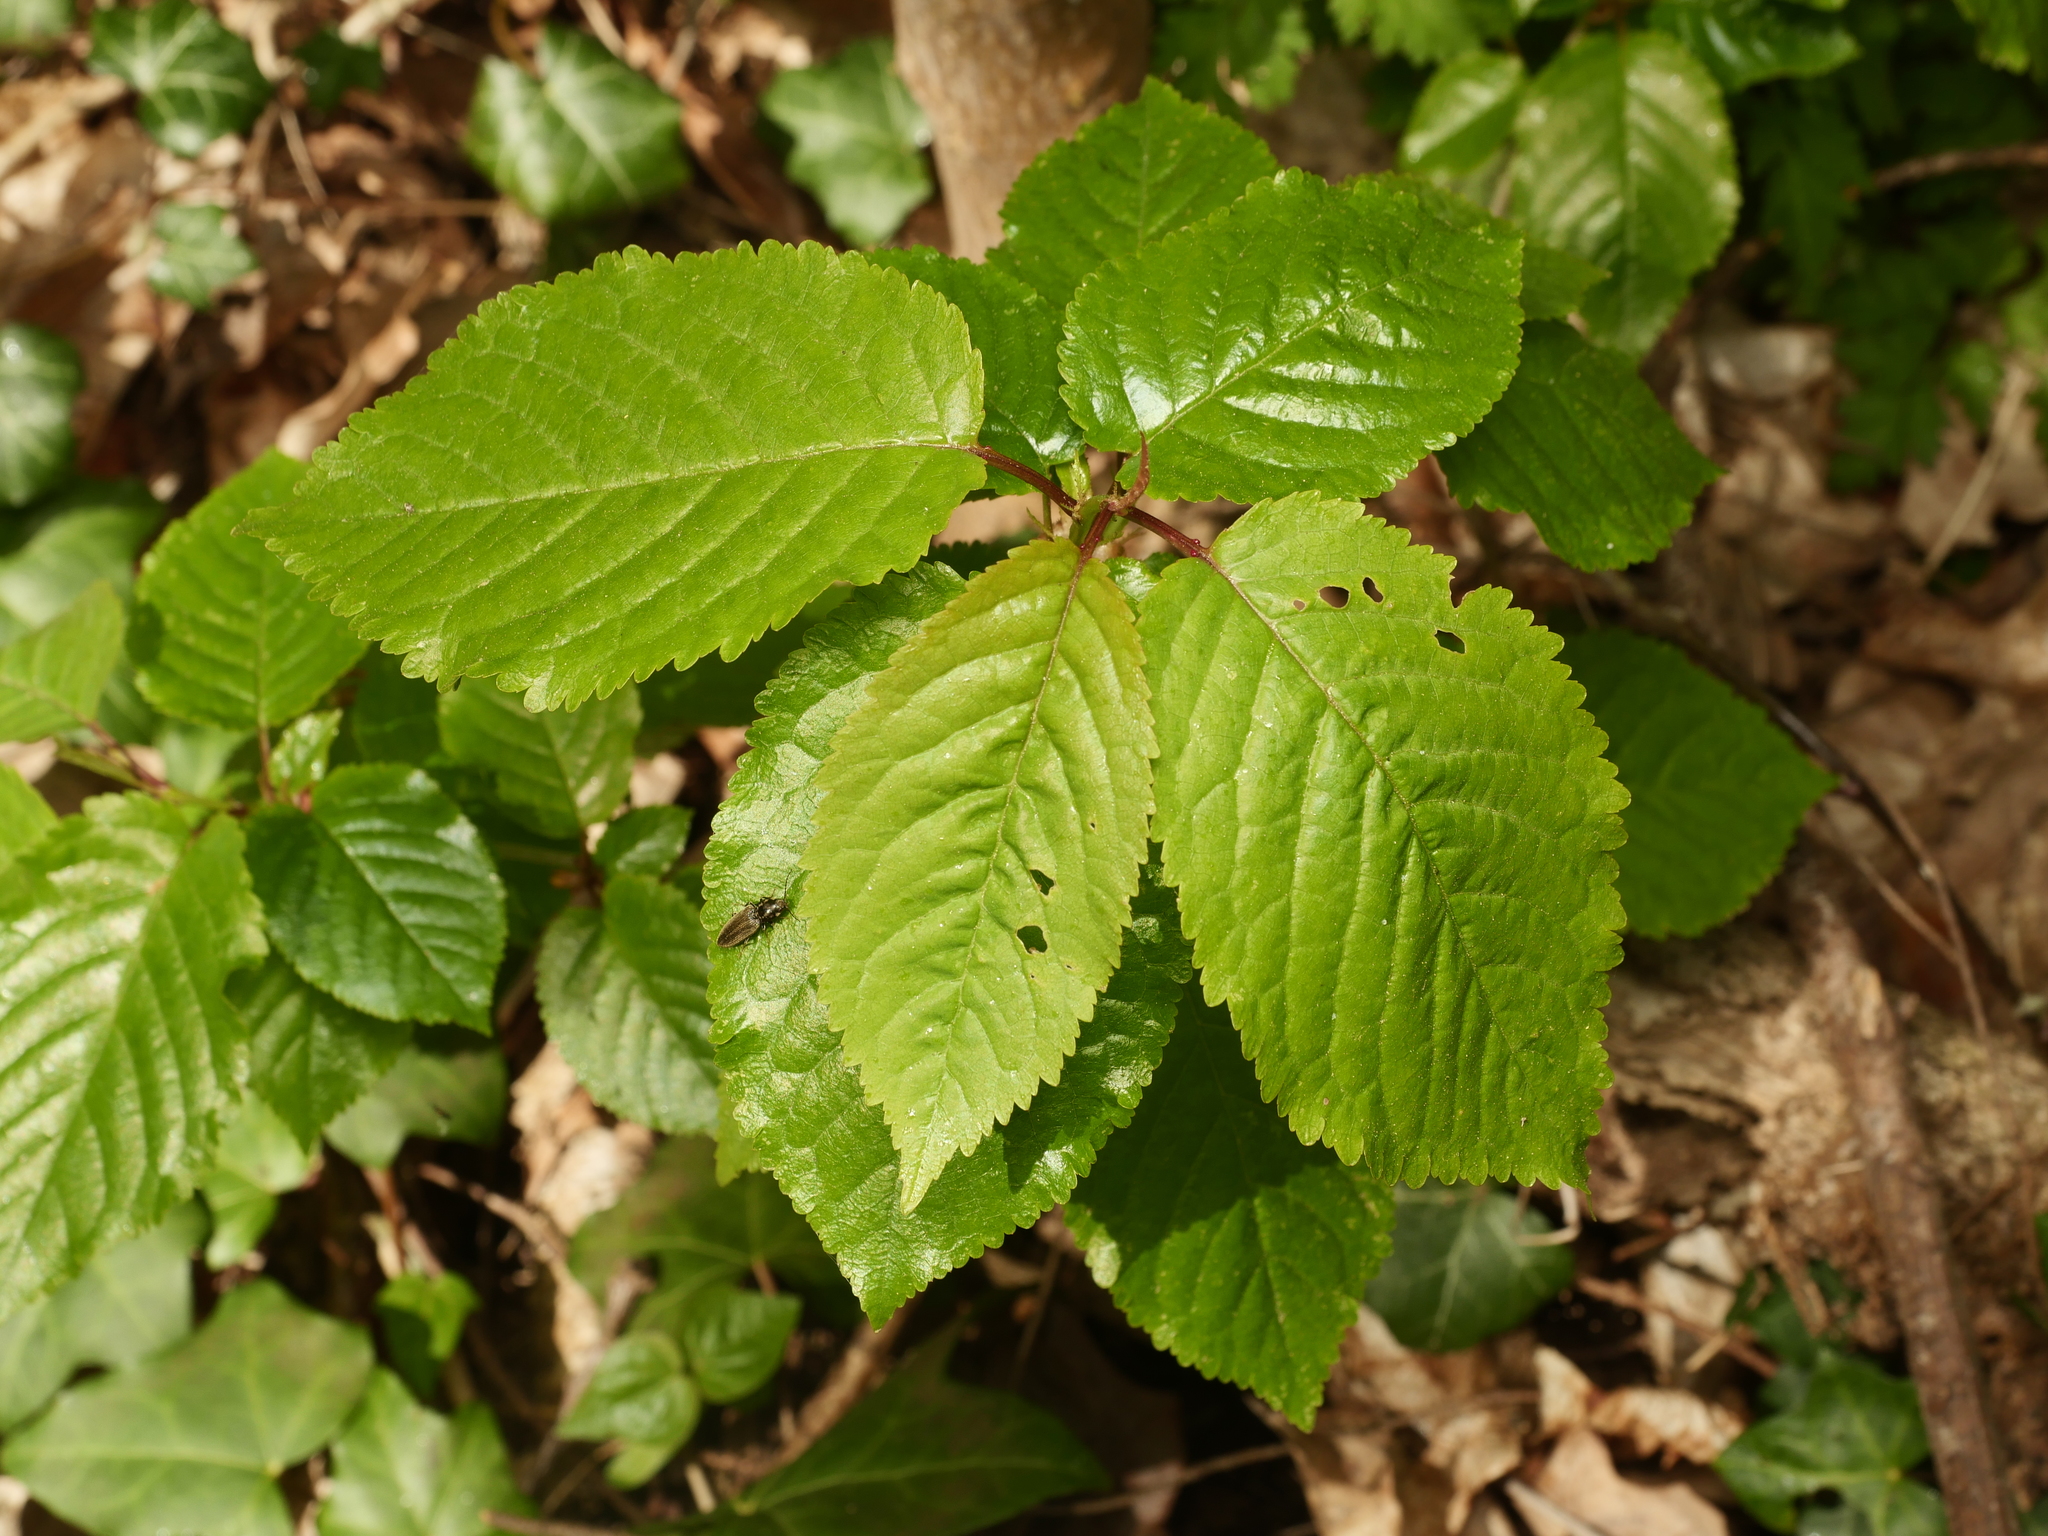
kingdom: Plantae
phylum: Tracheophyta
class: Magnoliopsida
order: Rosales
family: Rosaceae
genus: Prunus
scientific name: Prunus avium
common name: Sweet cherry
